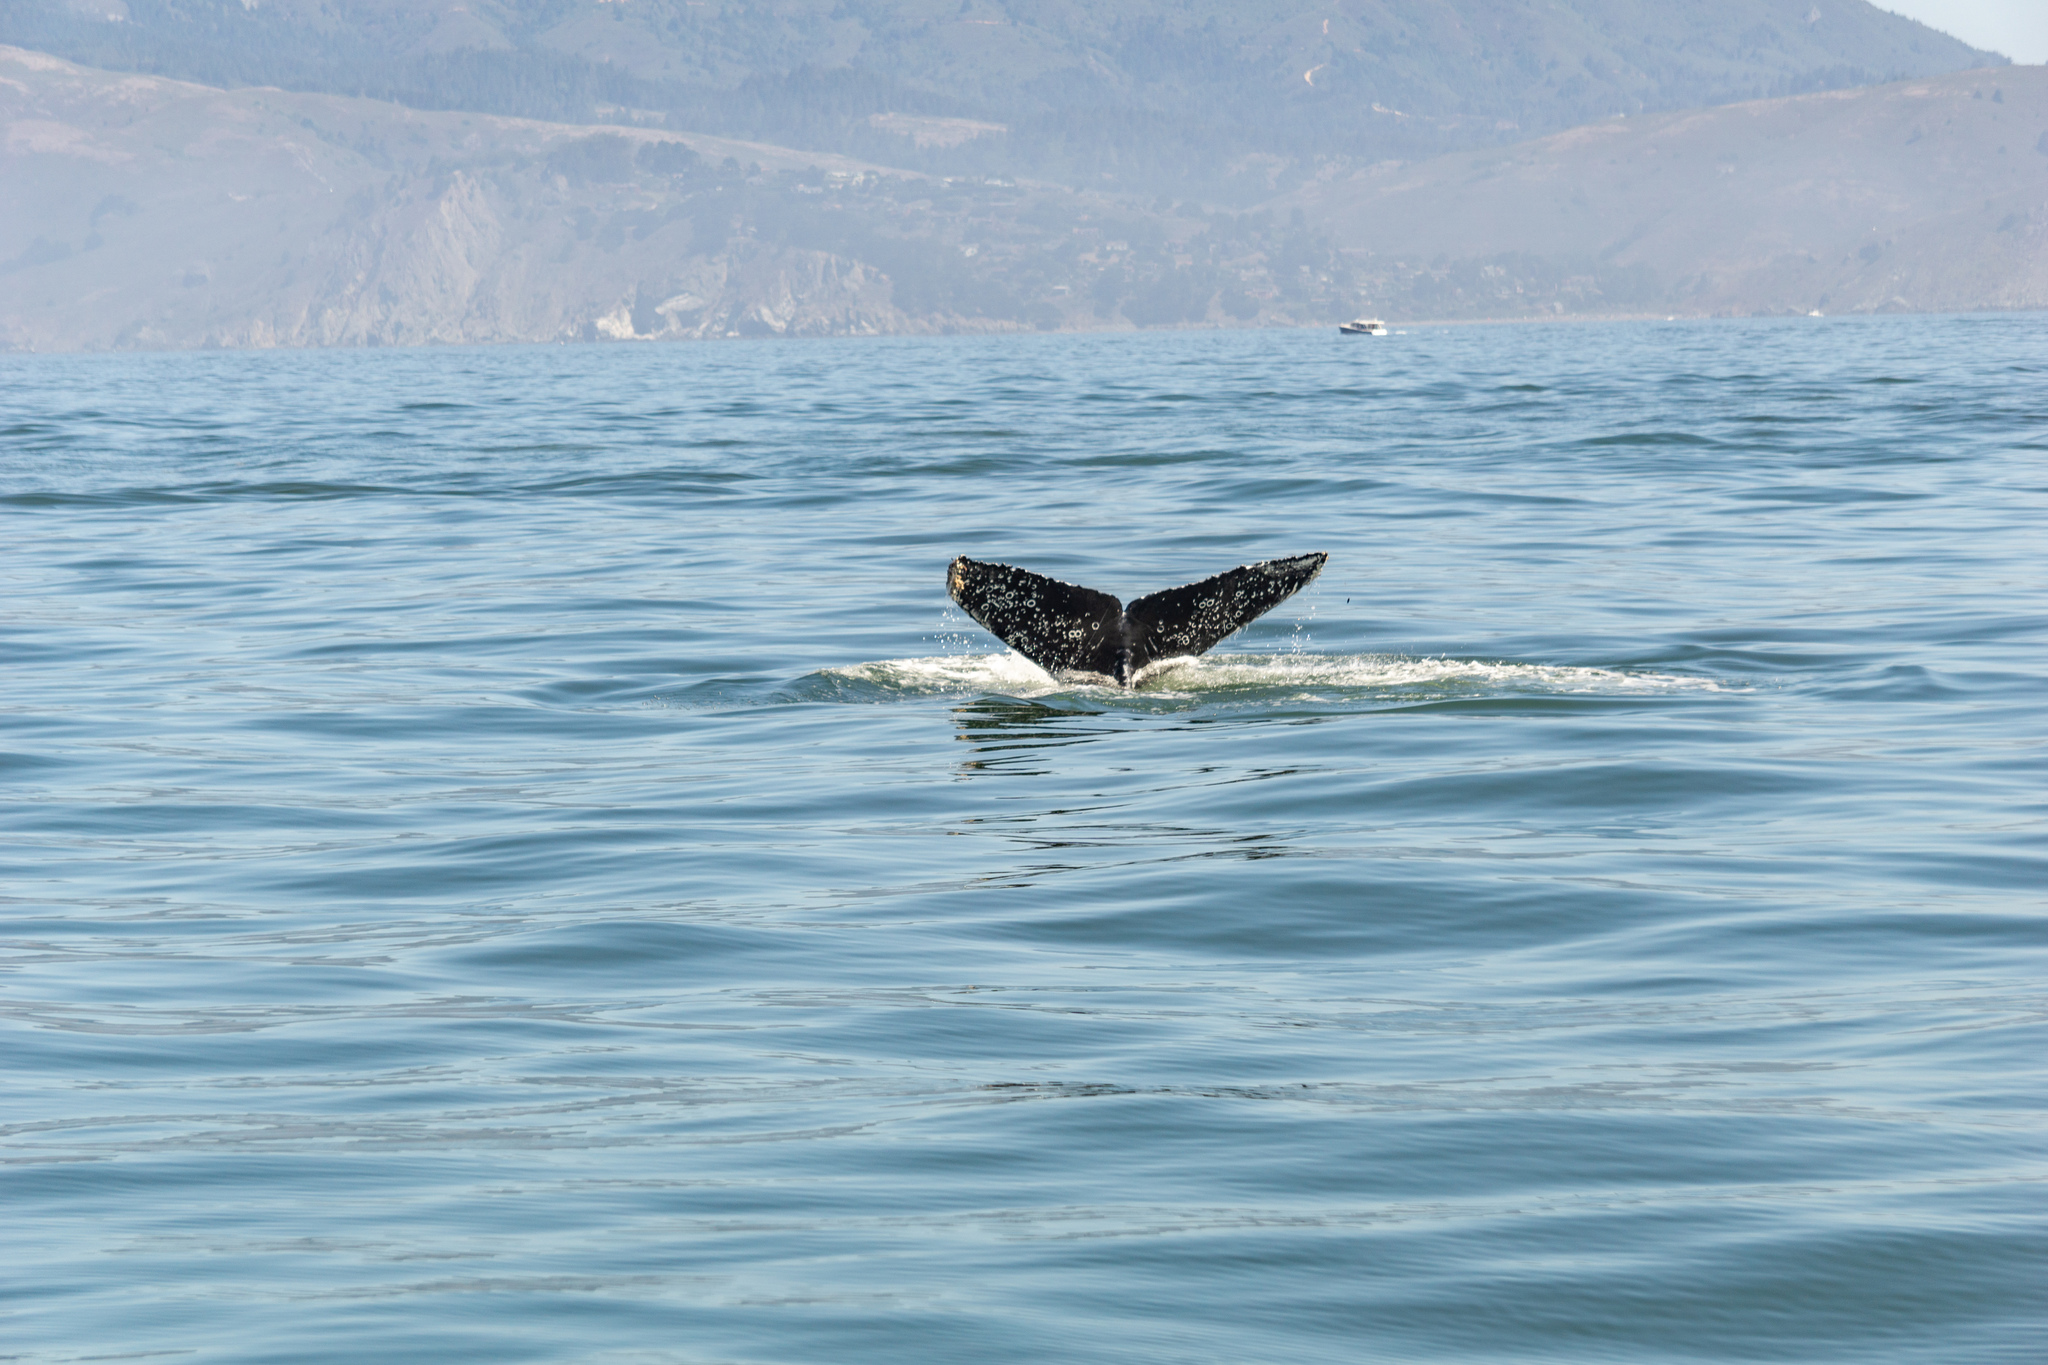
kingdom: Animalia
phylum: Chordata
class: Mammalia
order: Cetacea
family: Balaenopteridae
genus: Megaptera
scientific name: Megaptera novaeangliae
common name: Humpback whale
